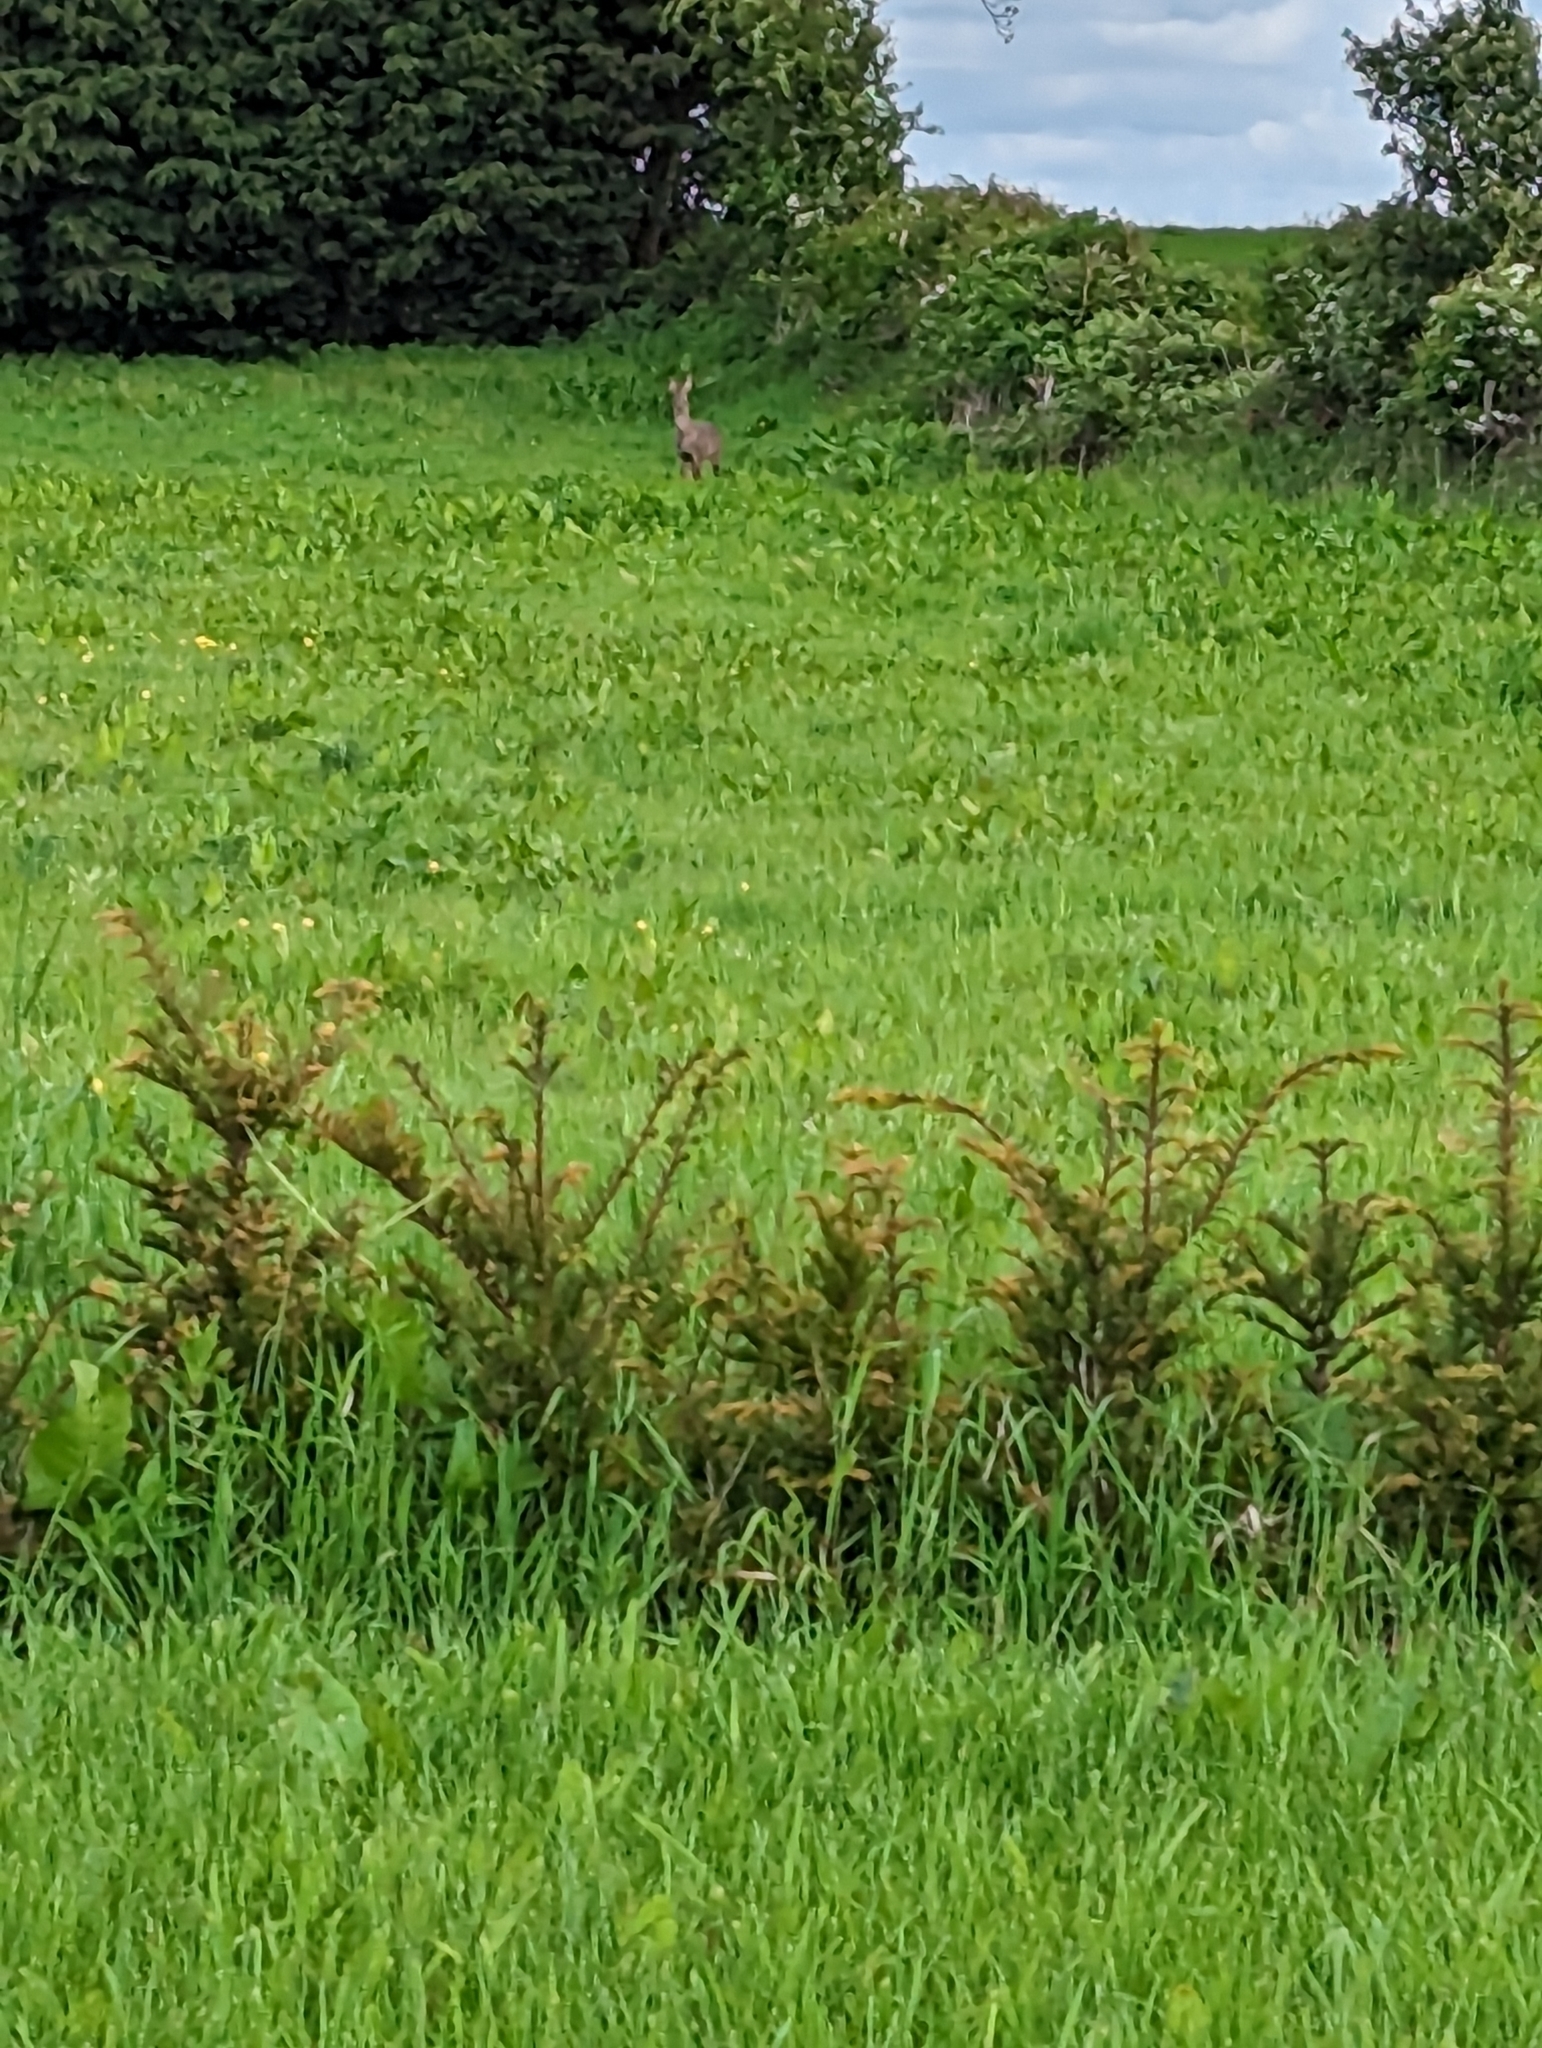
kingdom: Animalia
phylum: Chordata
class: Mammalia
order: Artiodactyla
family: Cervidae
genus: Capreolus
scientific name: Capreolus capreolus
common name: Western roe deer
